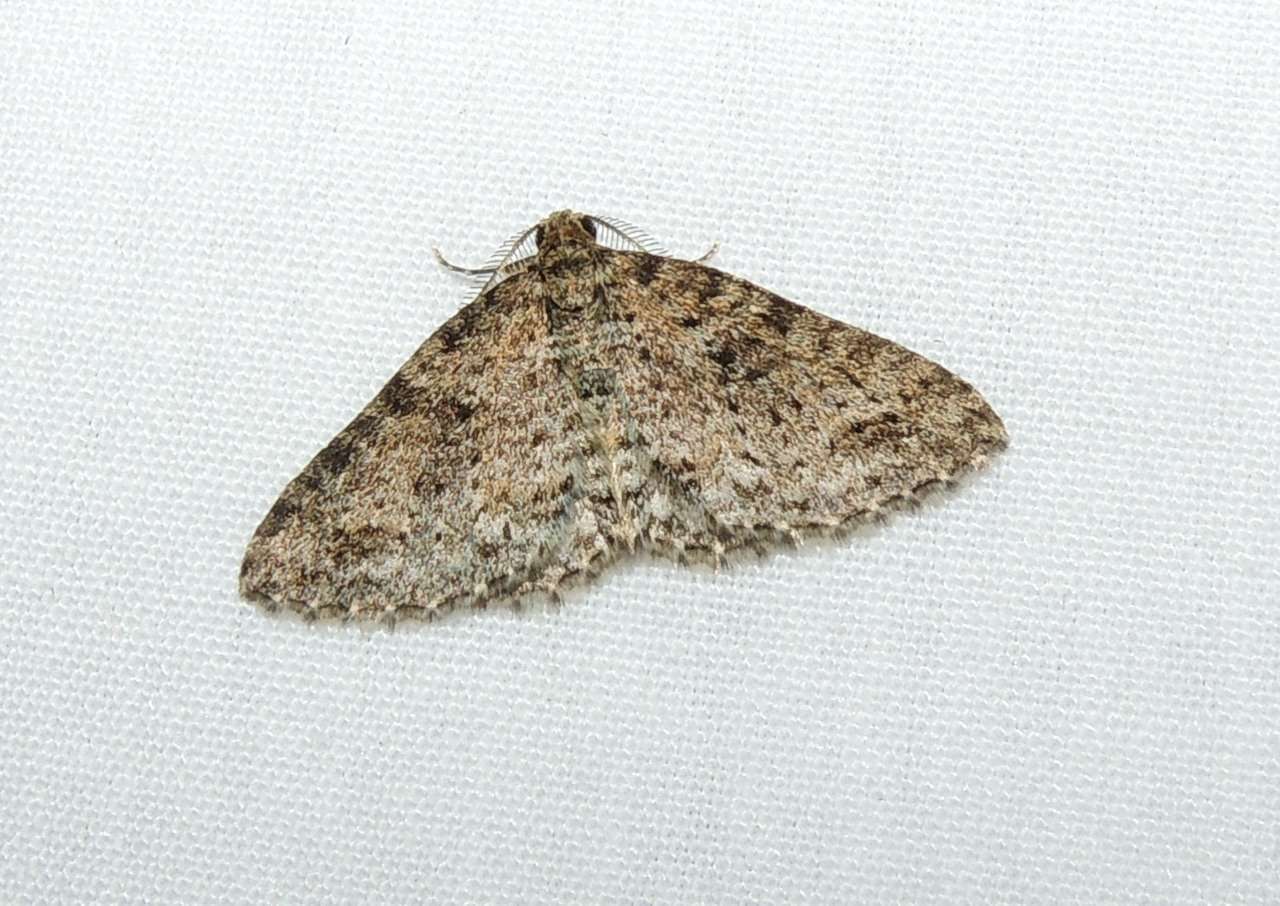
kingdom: Animalia
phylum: Arthropoda
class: Insecta
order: Lepidoptera
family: Geometridae
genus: Aponotoreas
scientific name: Aponotoreas petrodes
